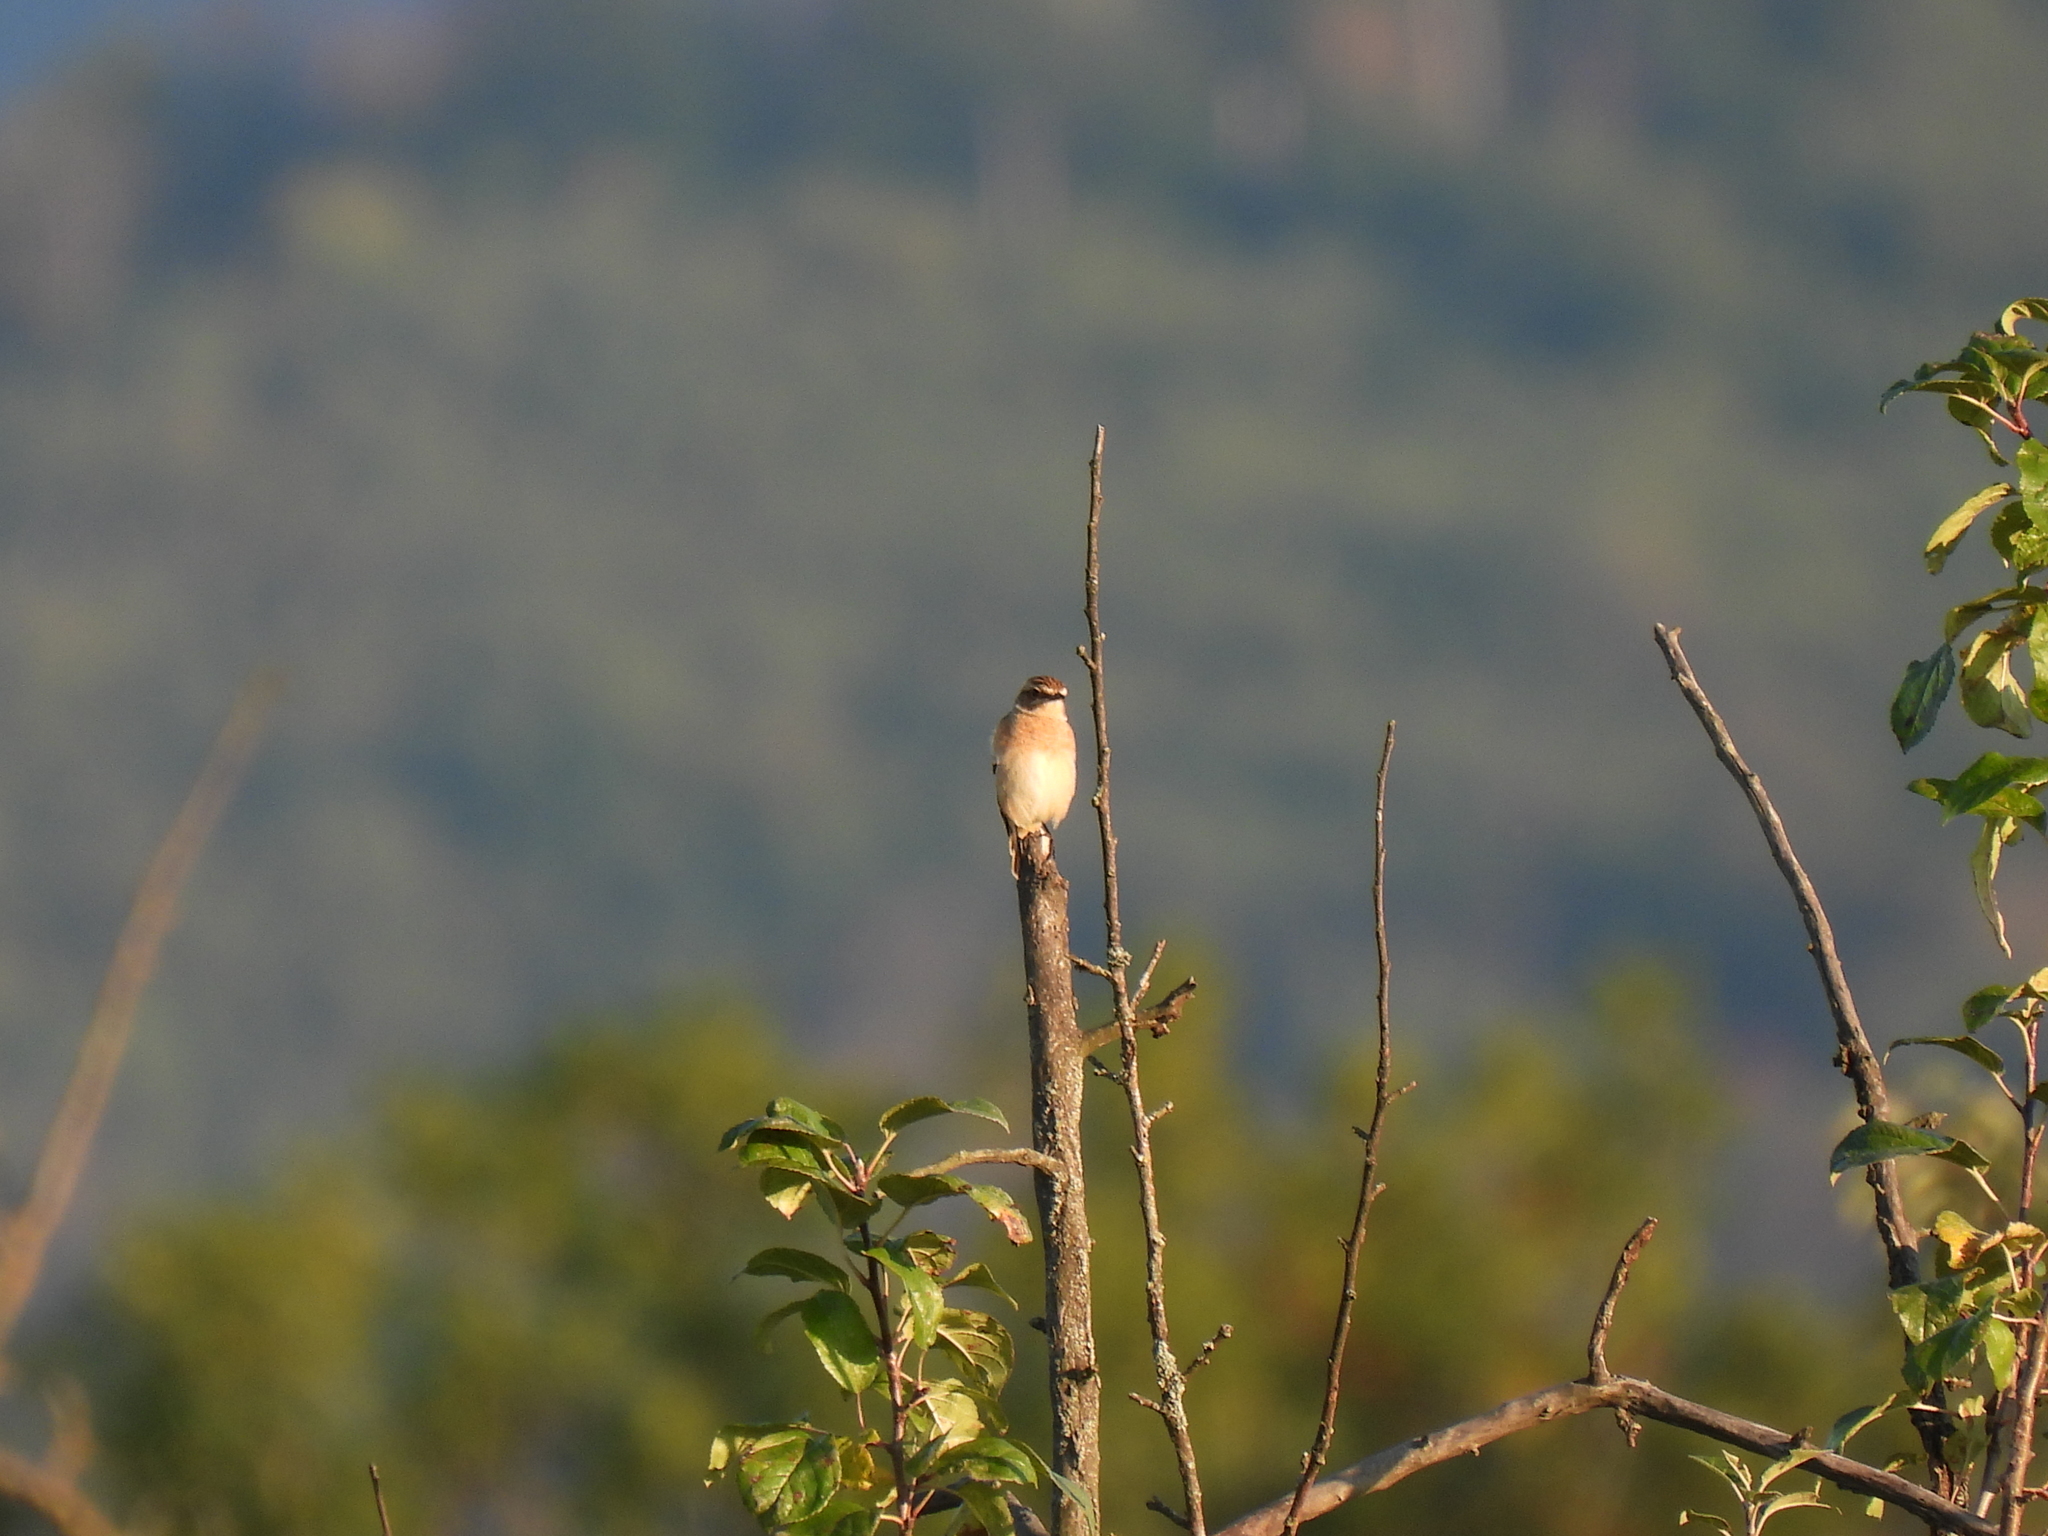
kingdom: Animalia
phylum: Chordata
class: Aves
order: Passeriformes
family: Muscicapidae
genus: Saxicola
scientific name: Saxicola rubetra
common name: Whinchat
